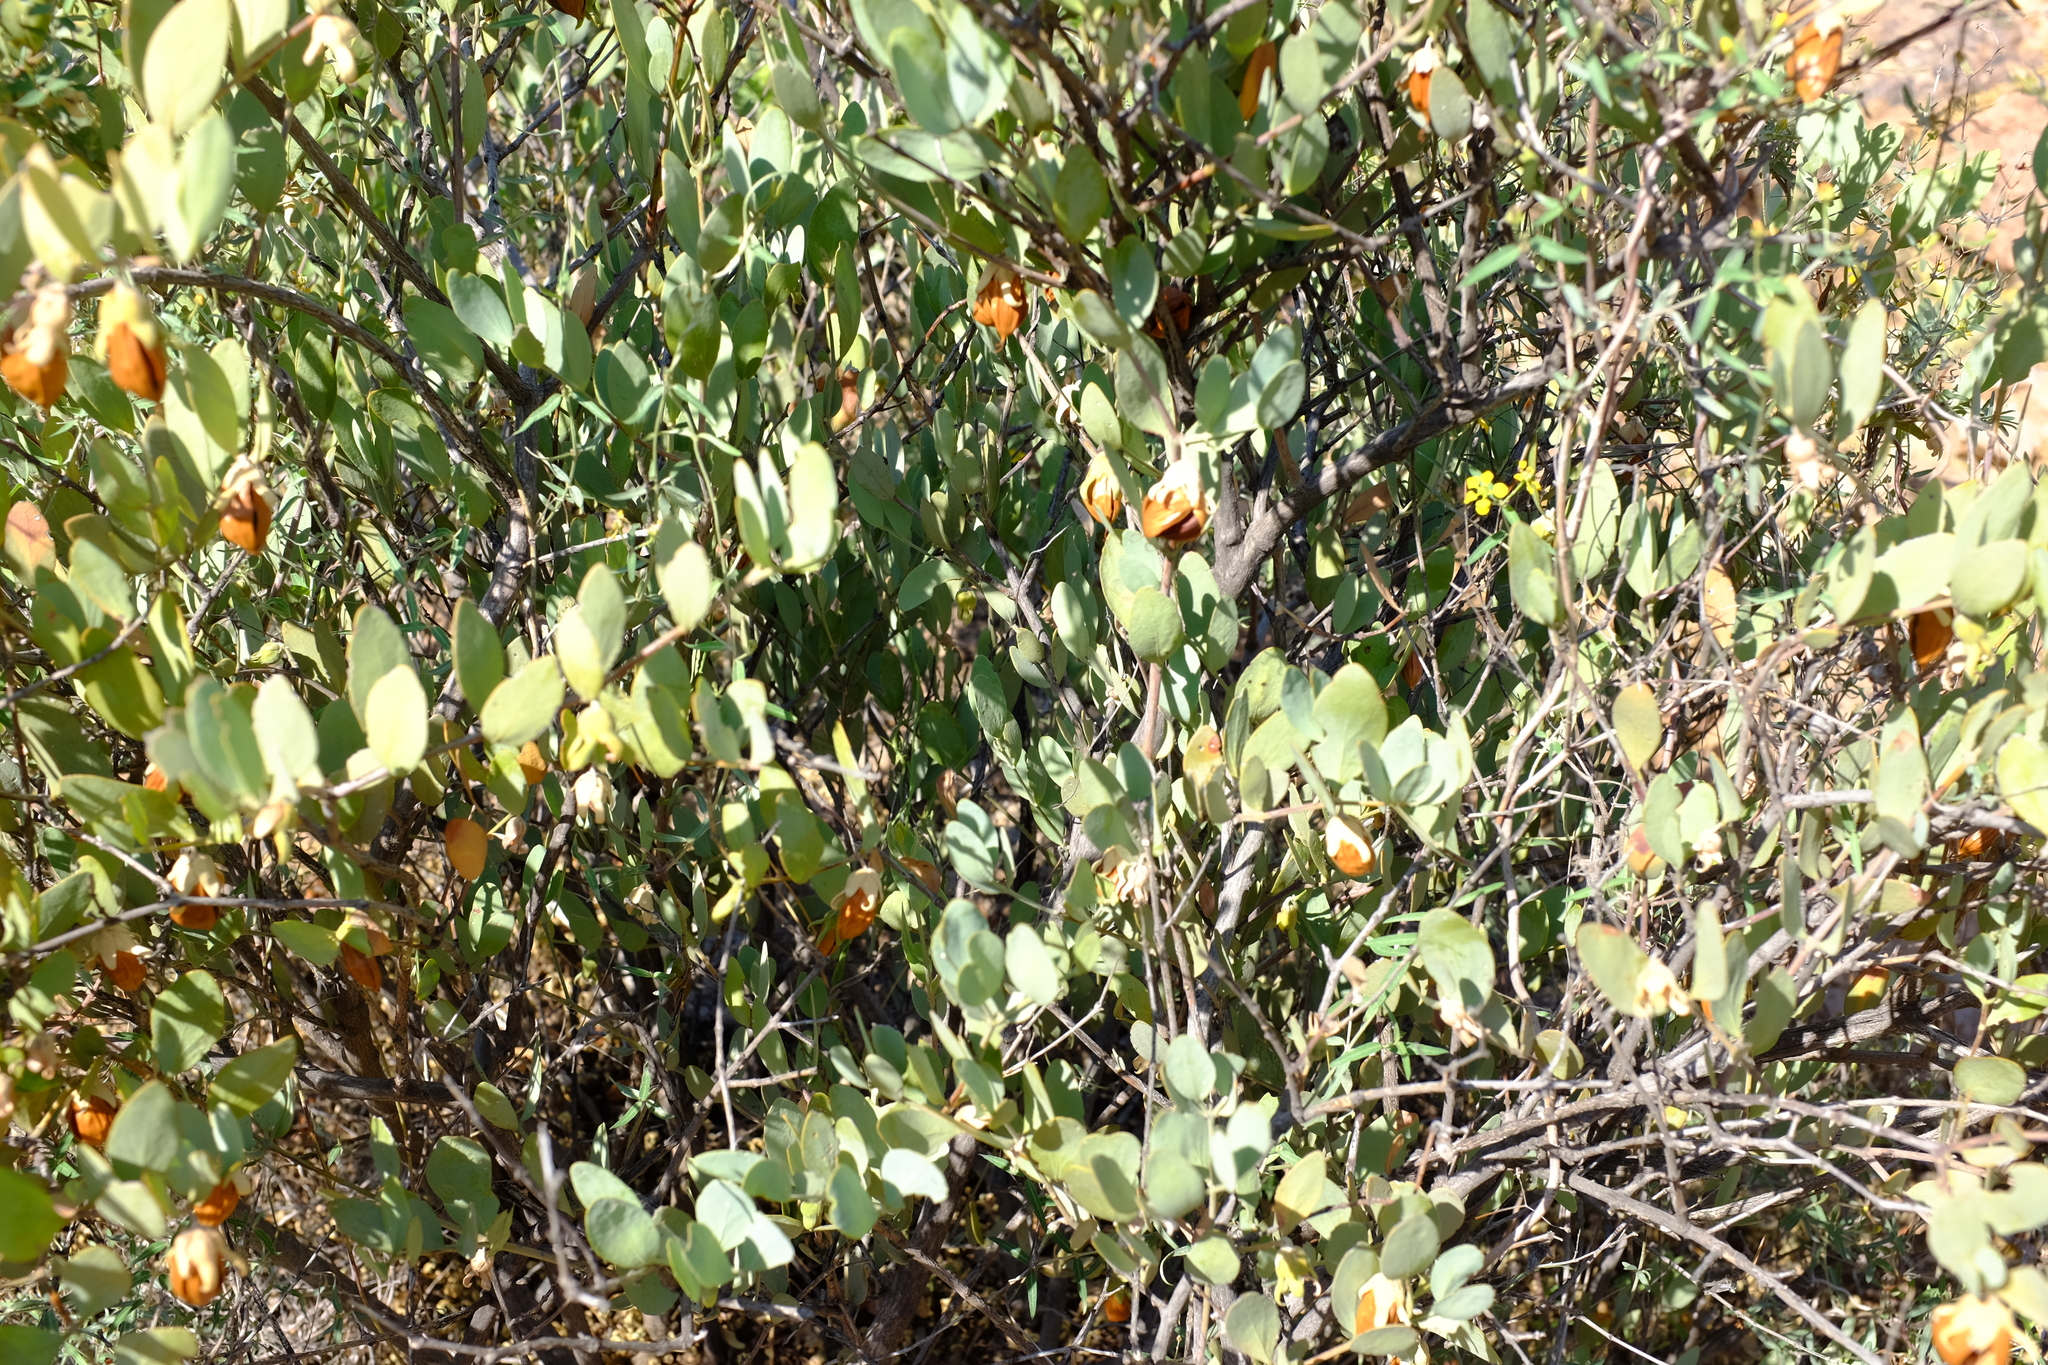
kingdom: Plantae
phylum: Tracheophyta
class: Magnoliopsida
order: Caryophyllales
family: Simmondsiaceae
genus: Simmondsia
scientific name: Simmondsia chinensis
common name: Jojoba
